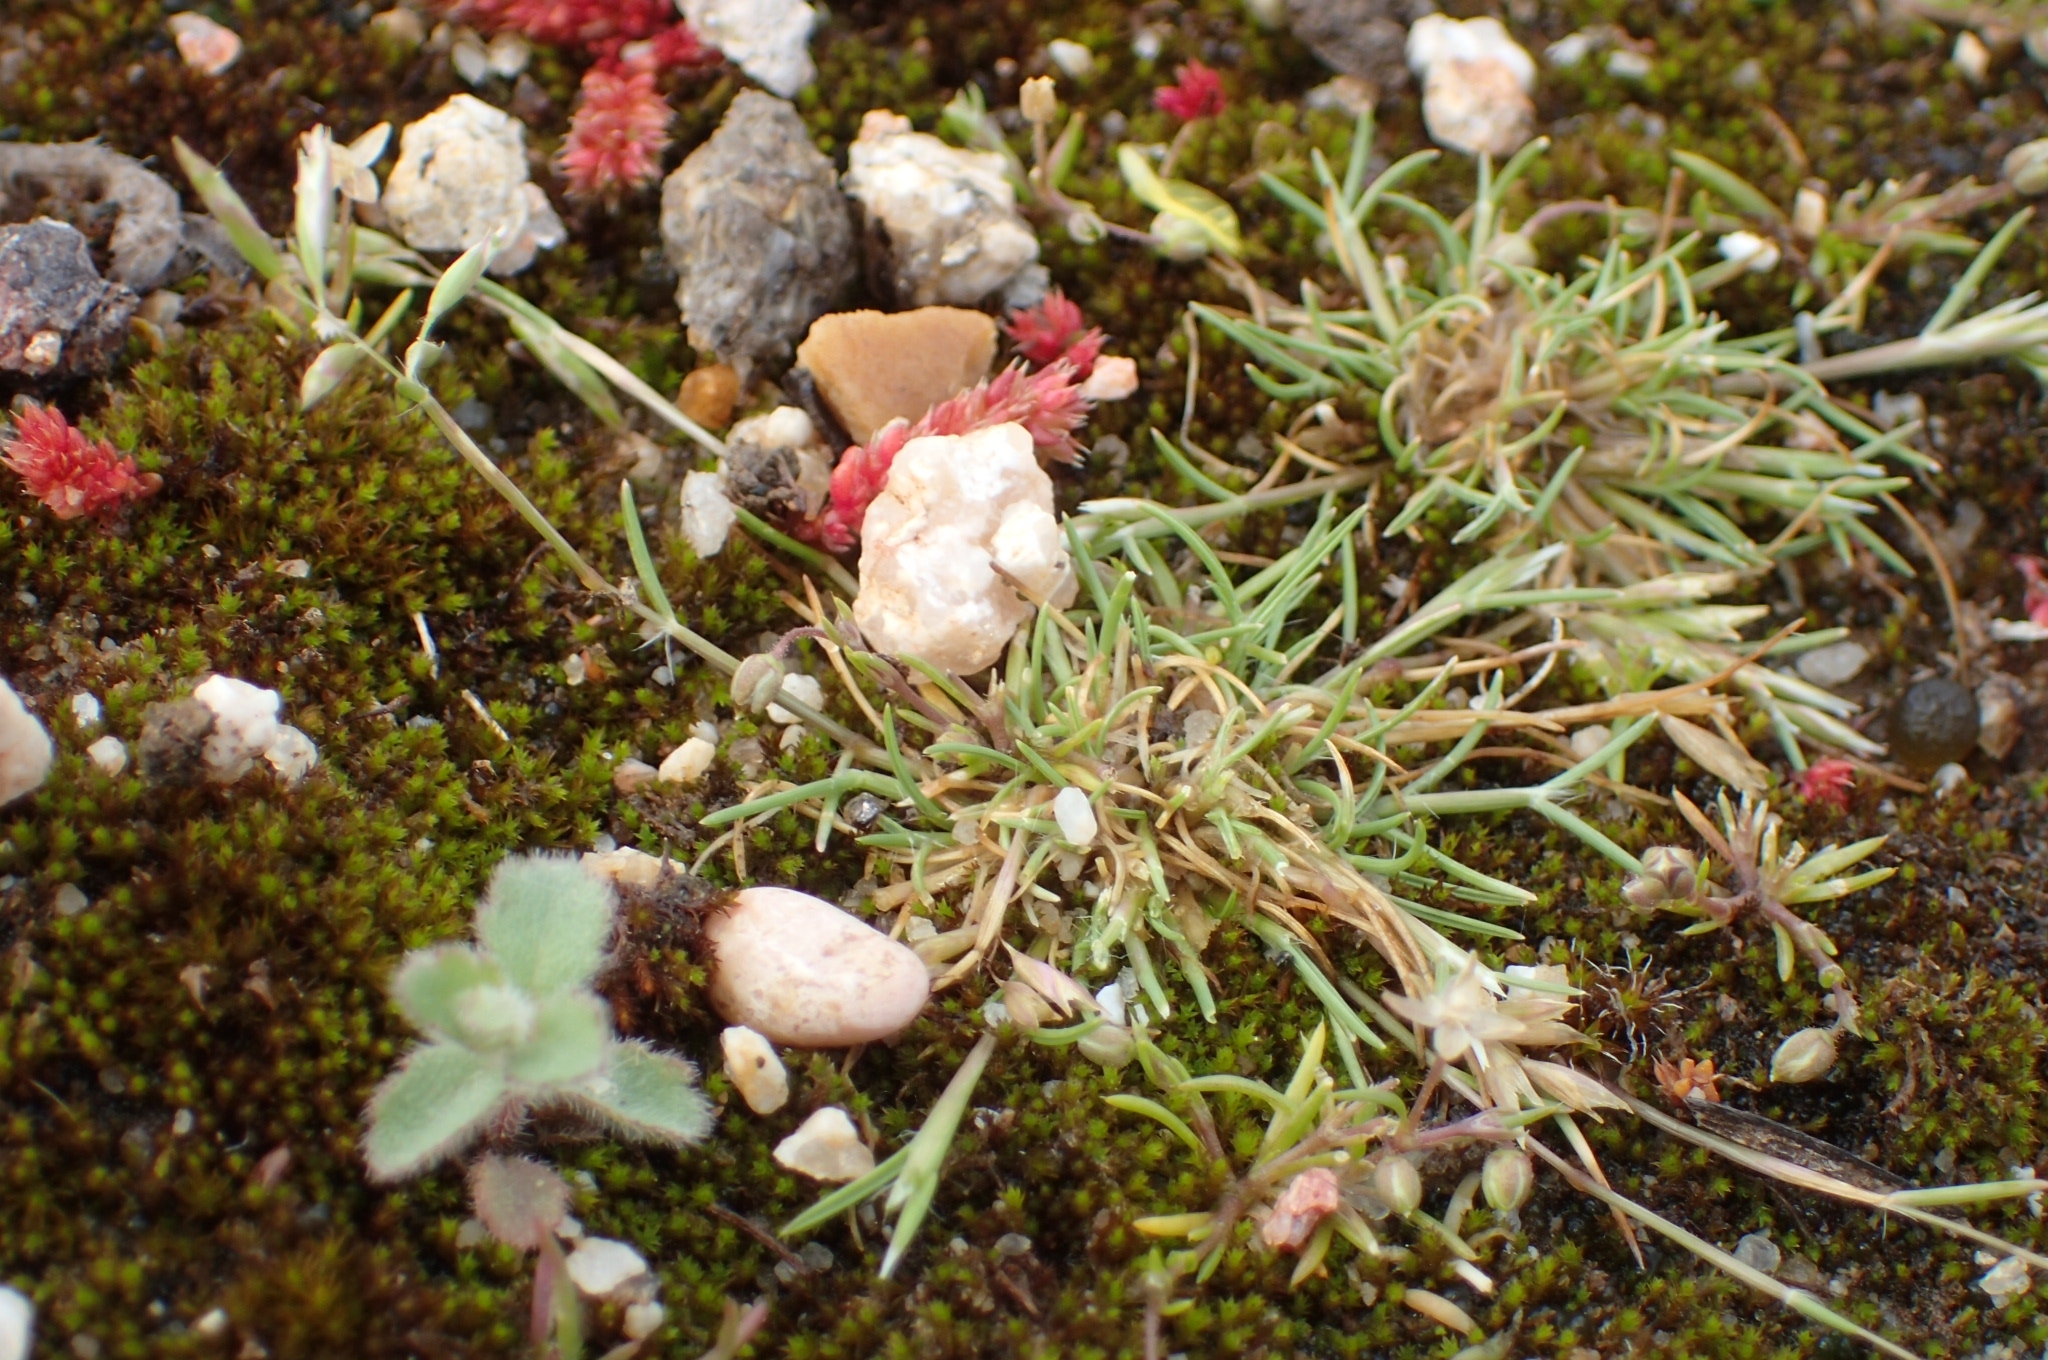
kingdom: Plantae
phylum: Tracheophyta
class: Liliopsida
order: Poales
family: Poaceae
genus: Schismus
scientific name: Schismus barbatus
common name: Kelch-grass
